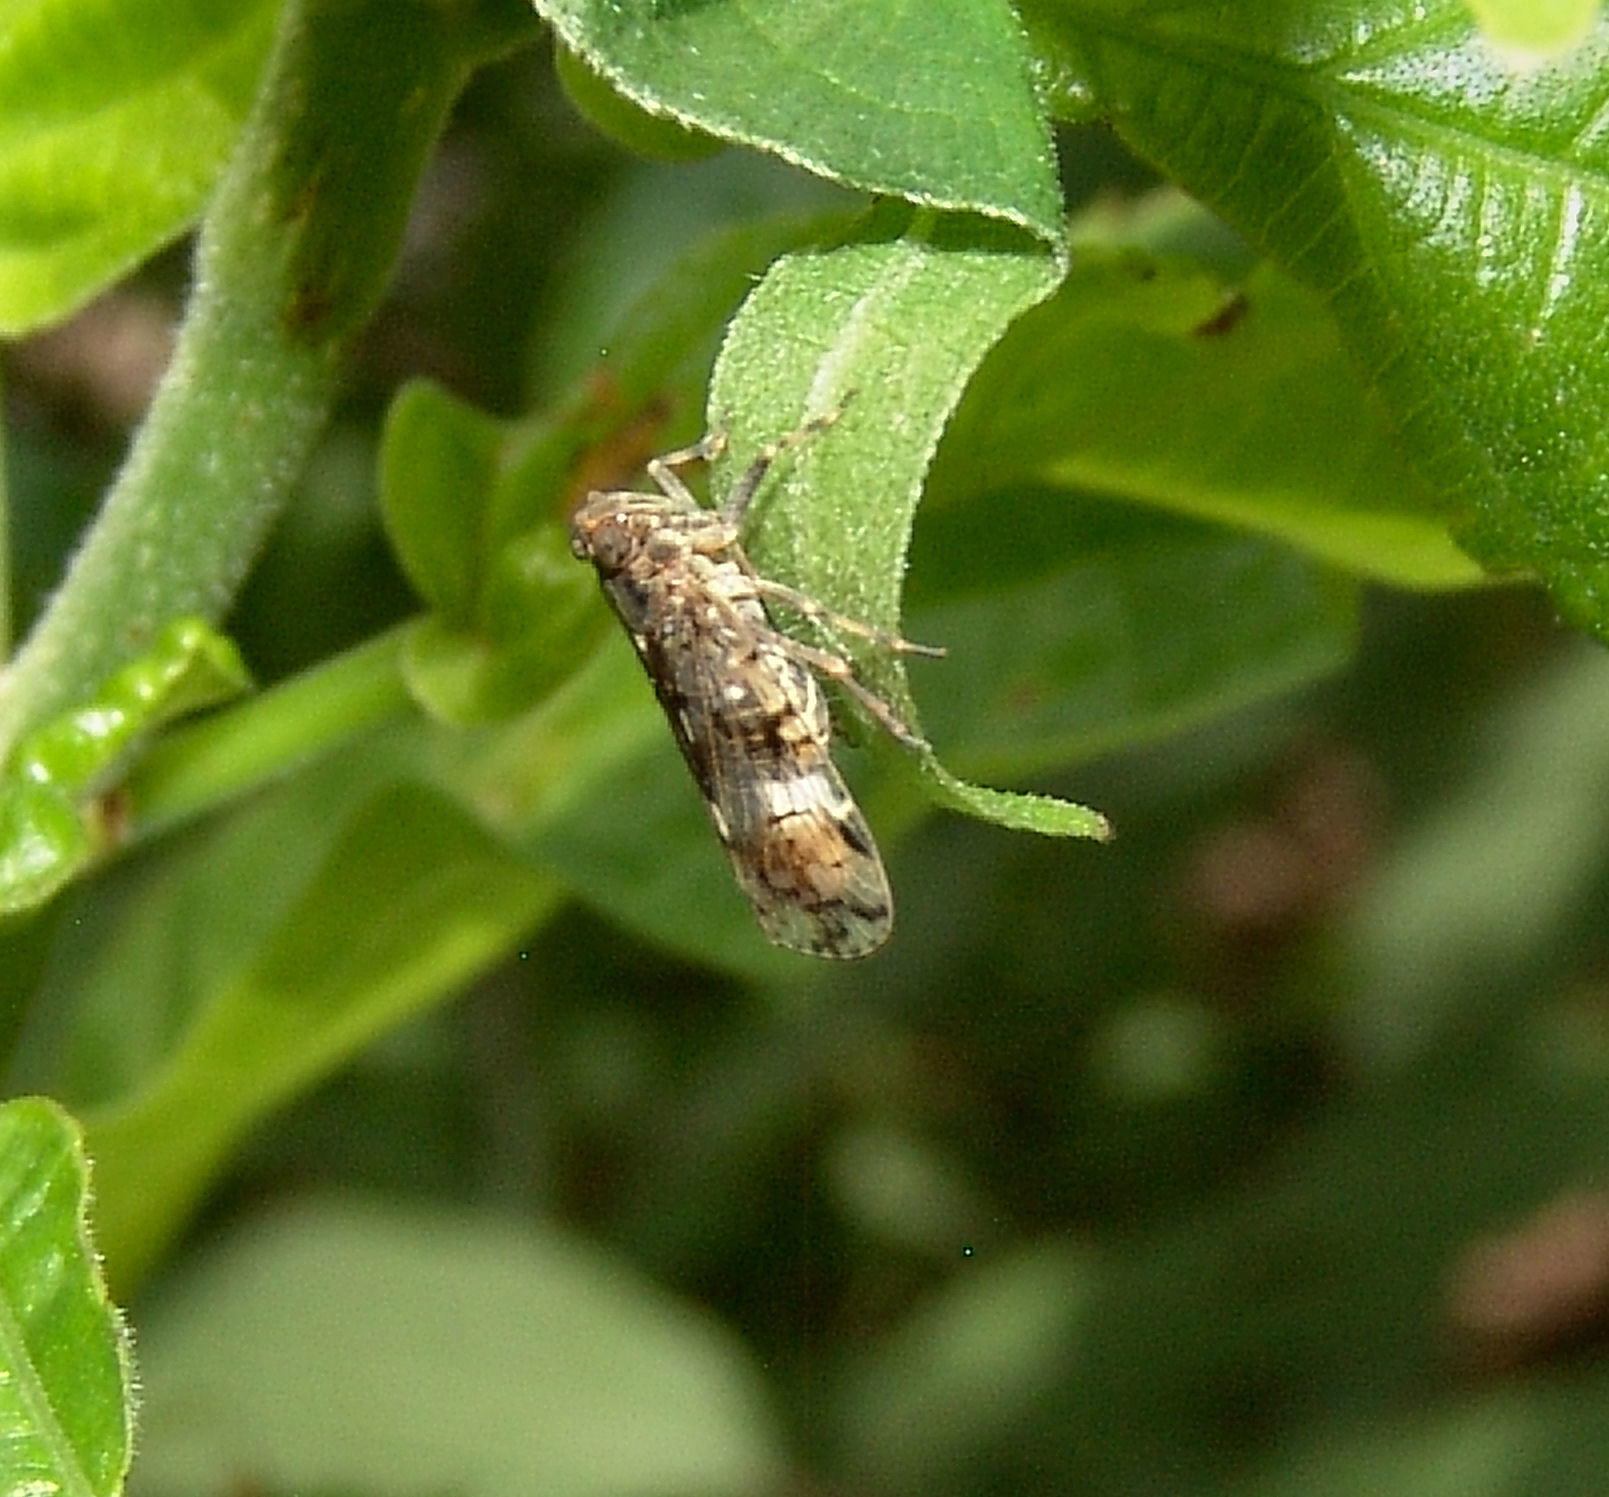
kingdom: Animalia
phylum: Arthropoda
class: Insecta
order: Hemiptera
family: Cixiidae
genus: Melanoliarus
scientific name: Melanoliarus placitus
